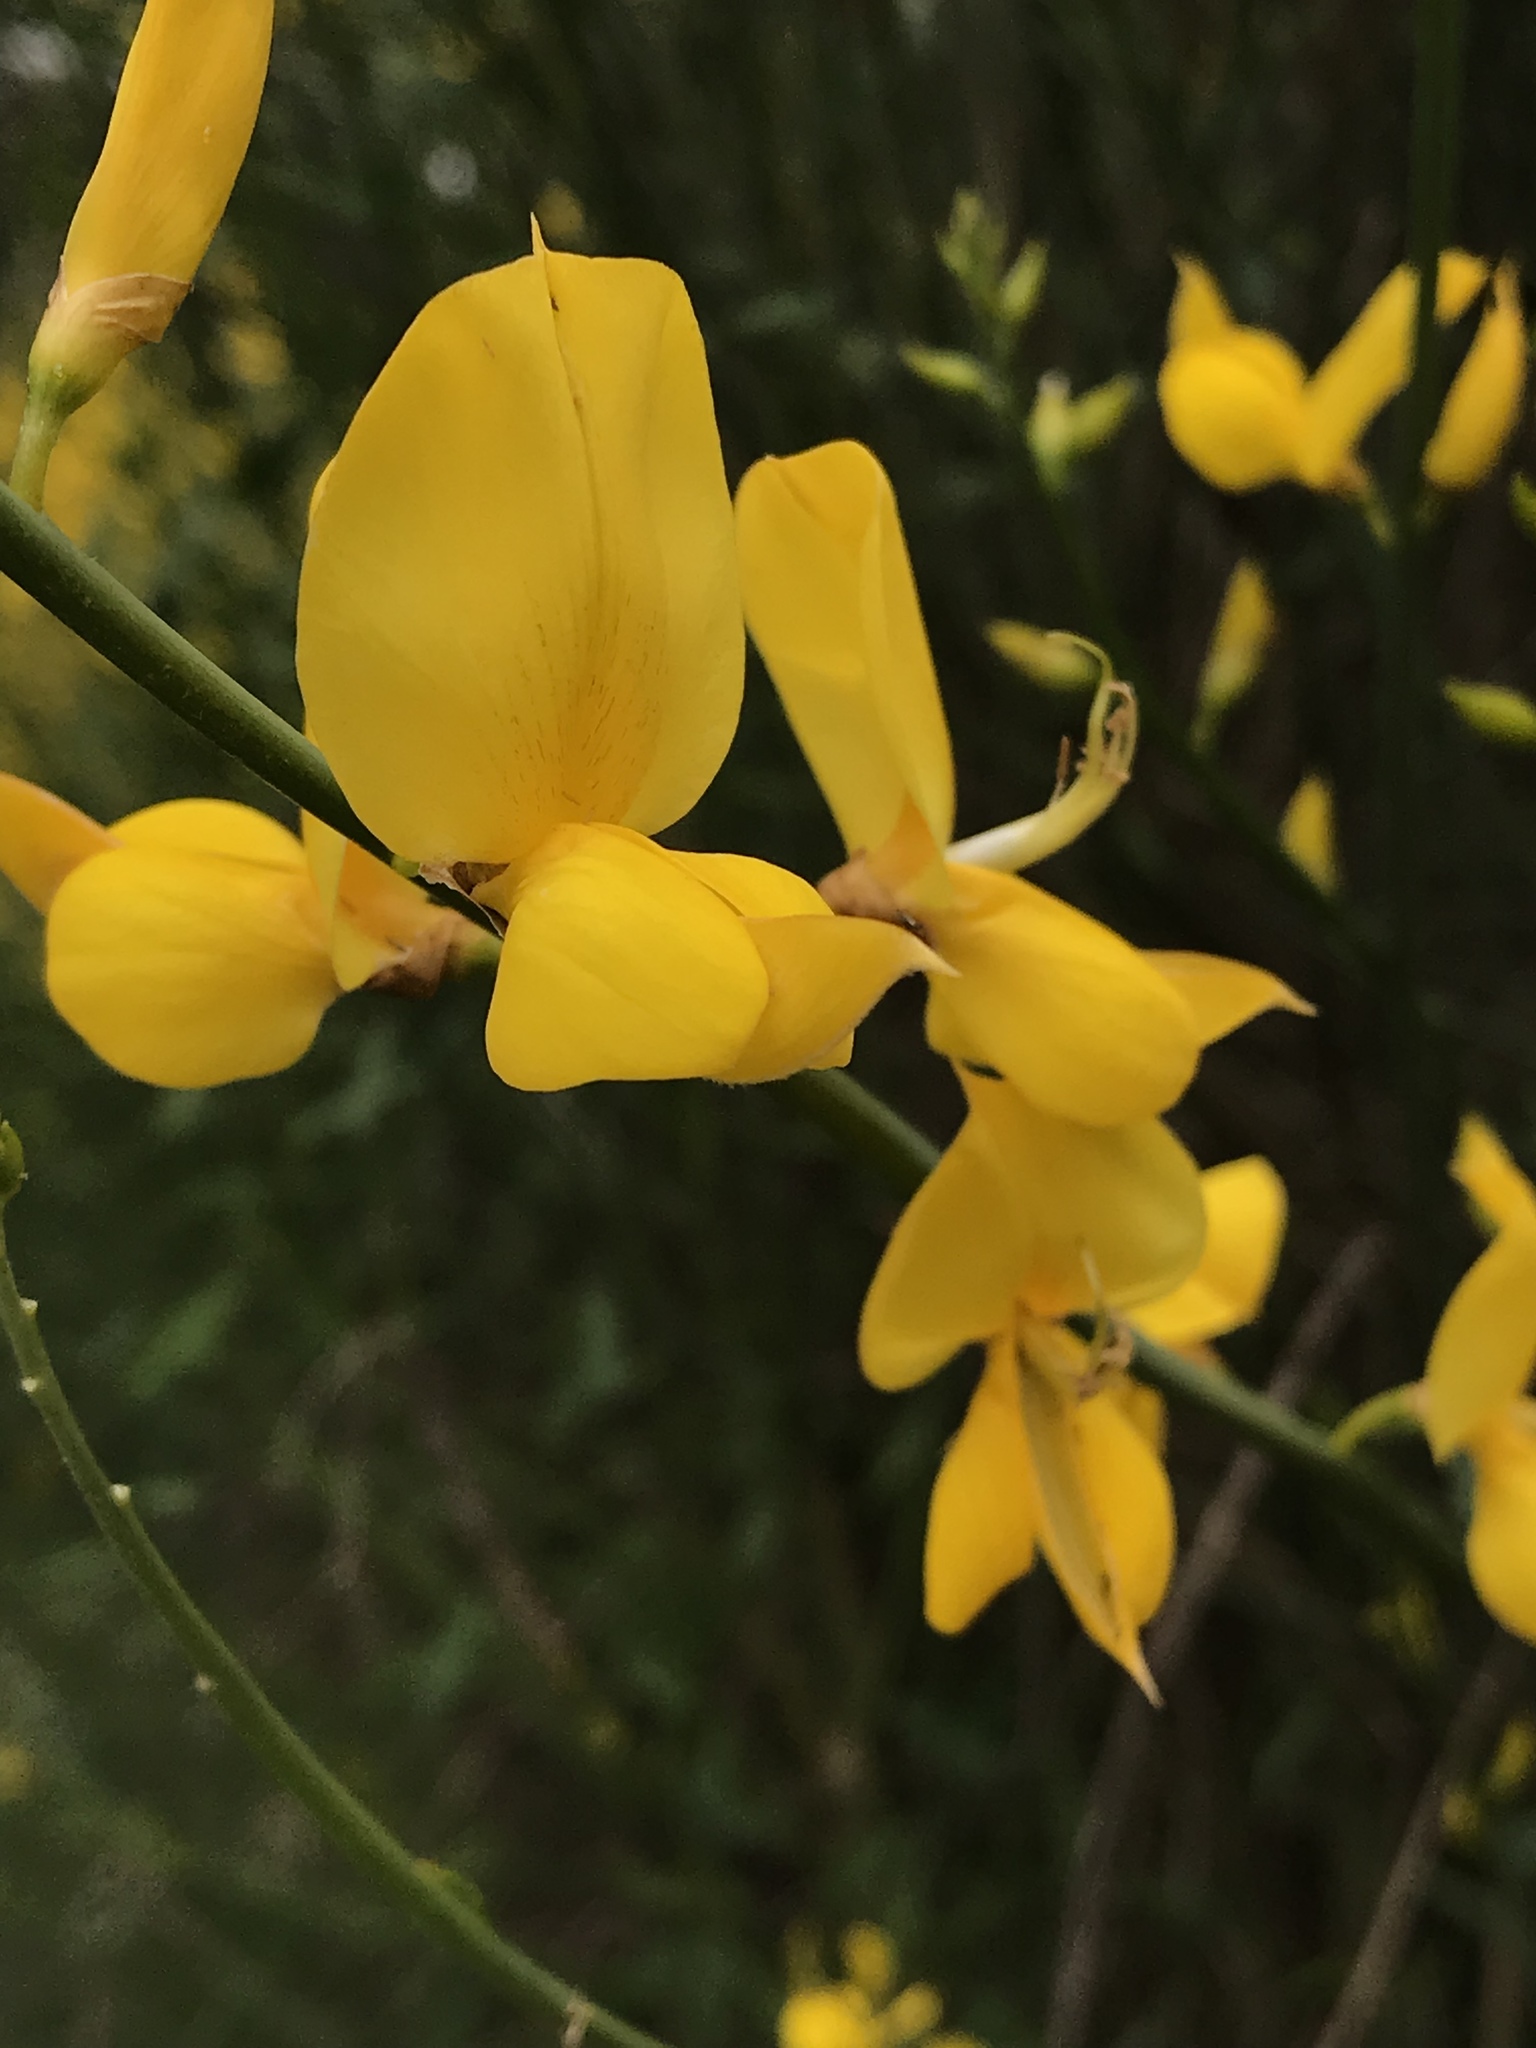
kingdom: Plantae
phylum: Tracheophyta
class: Magnoliopsida
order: Fabales
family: Fabaceae
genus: Spartium
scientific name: Spartium junceum
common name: Spanish broom
